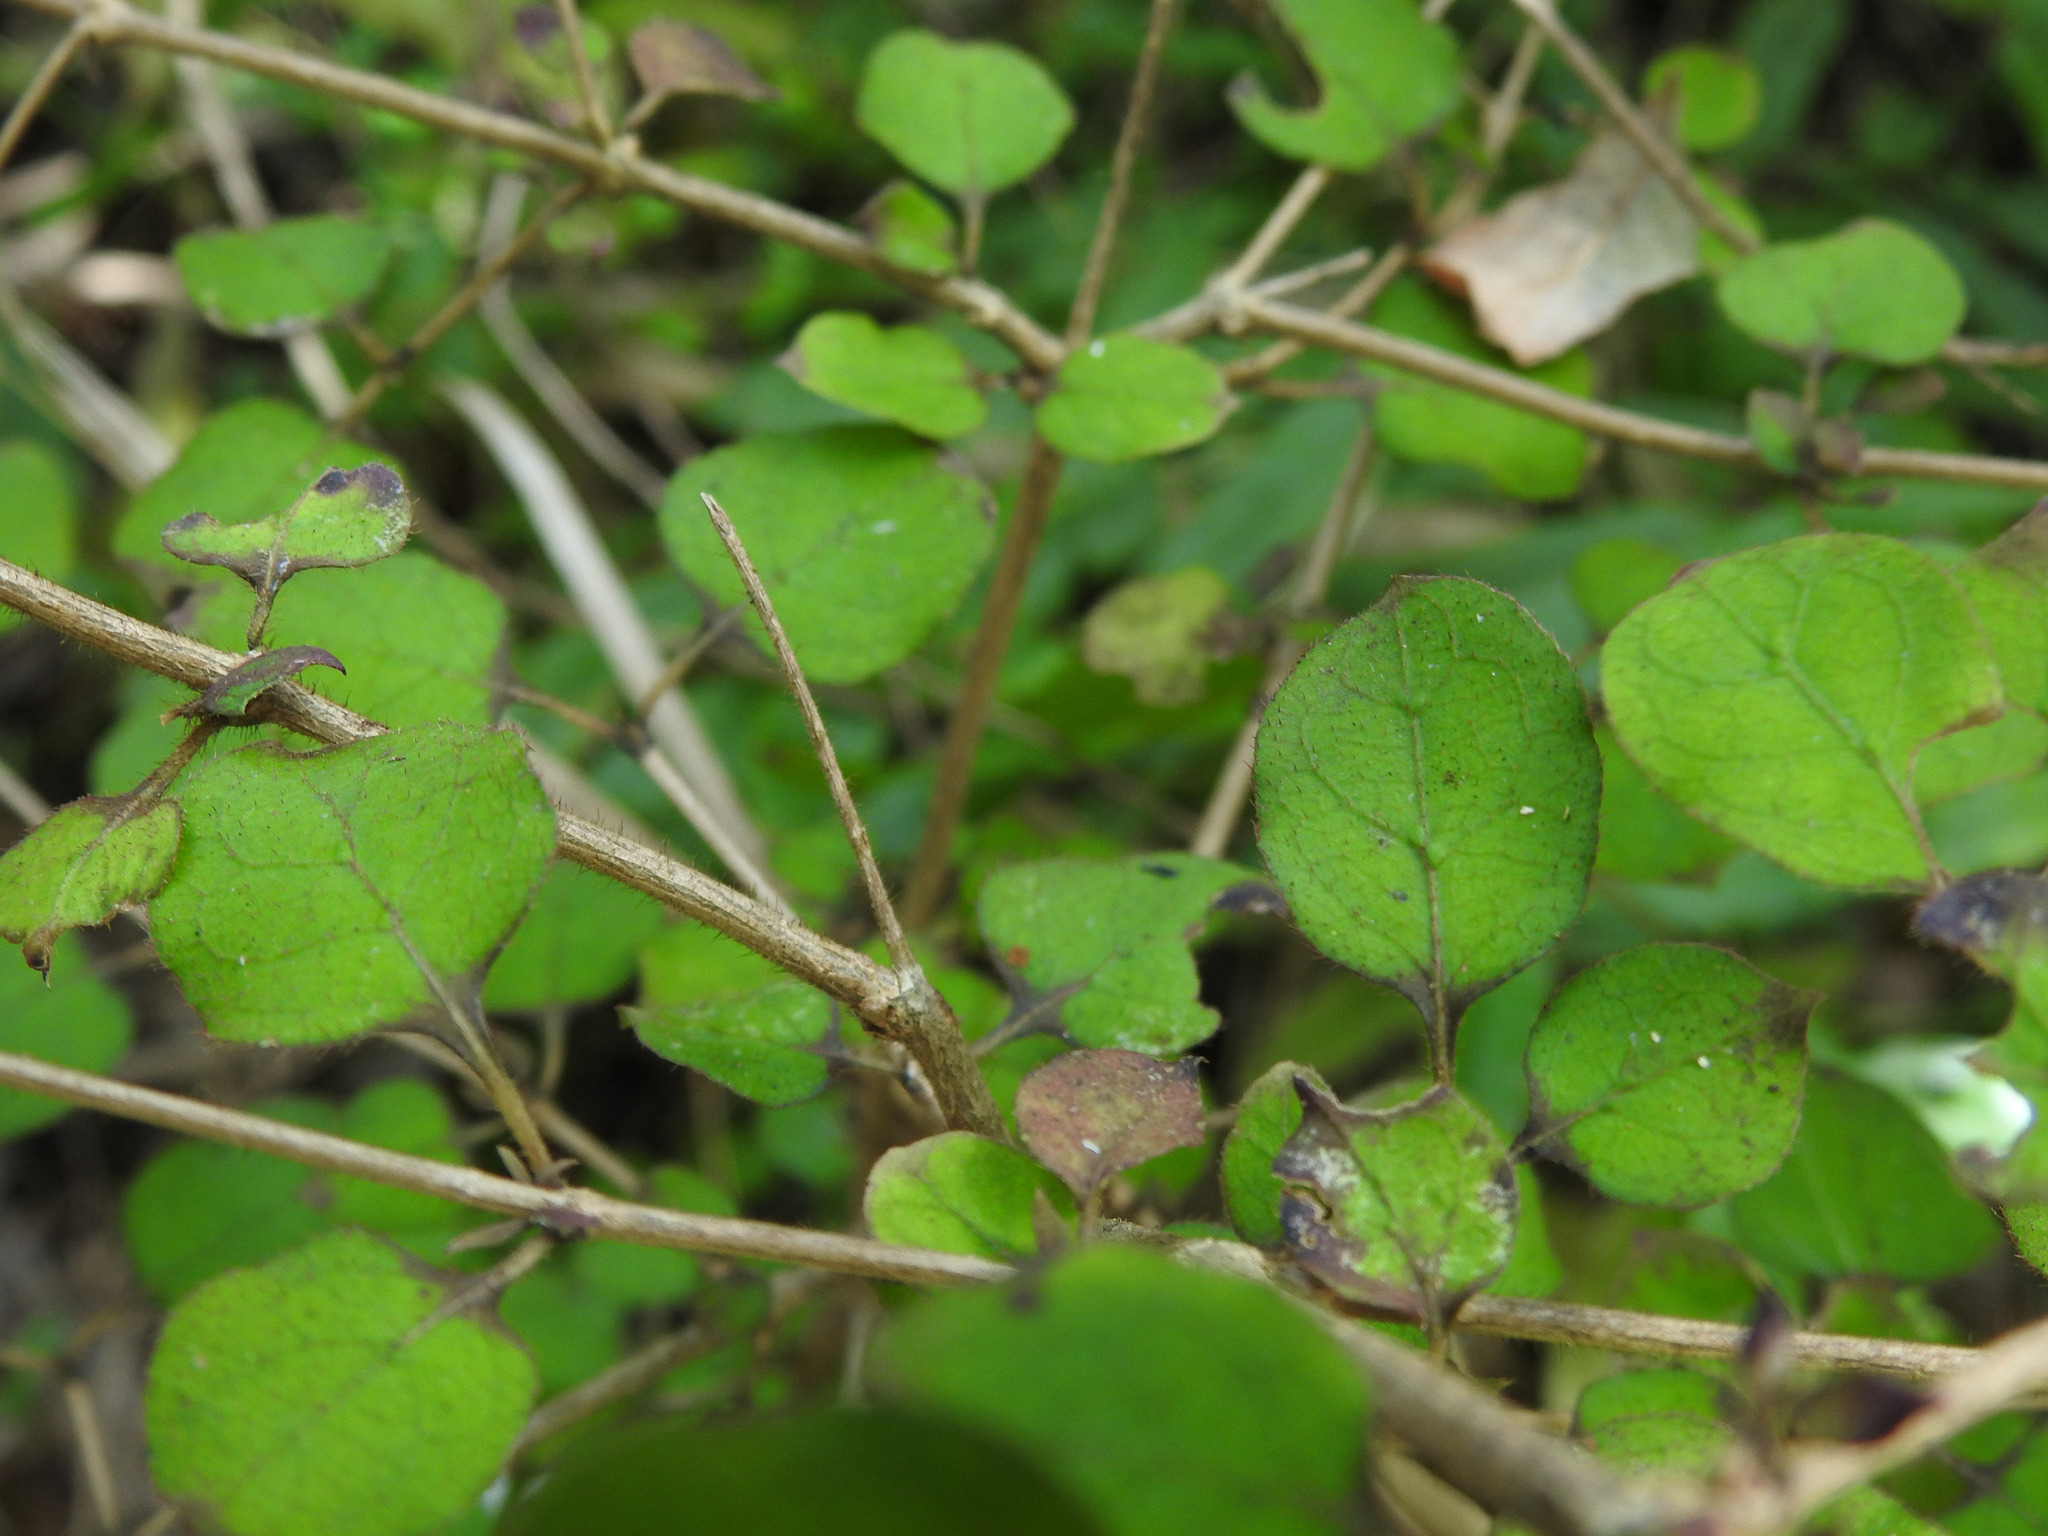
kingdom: Plantae
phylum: Tracheophyta
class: Magnoliopsida
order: Gentianales
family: Rubiaceae
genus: Coprosma
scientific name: Coprosma rotundifolia
